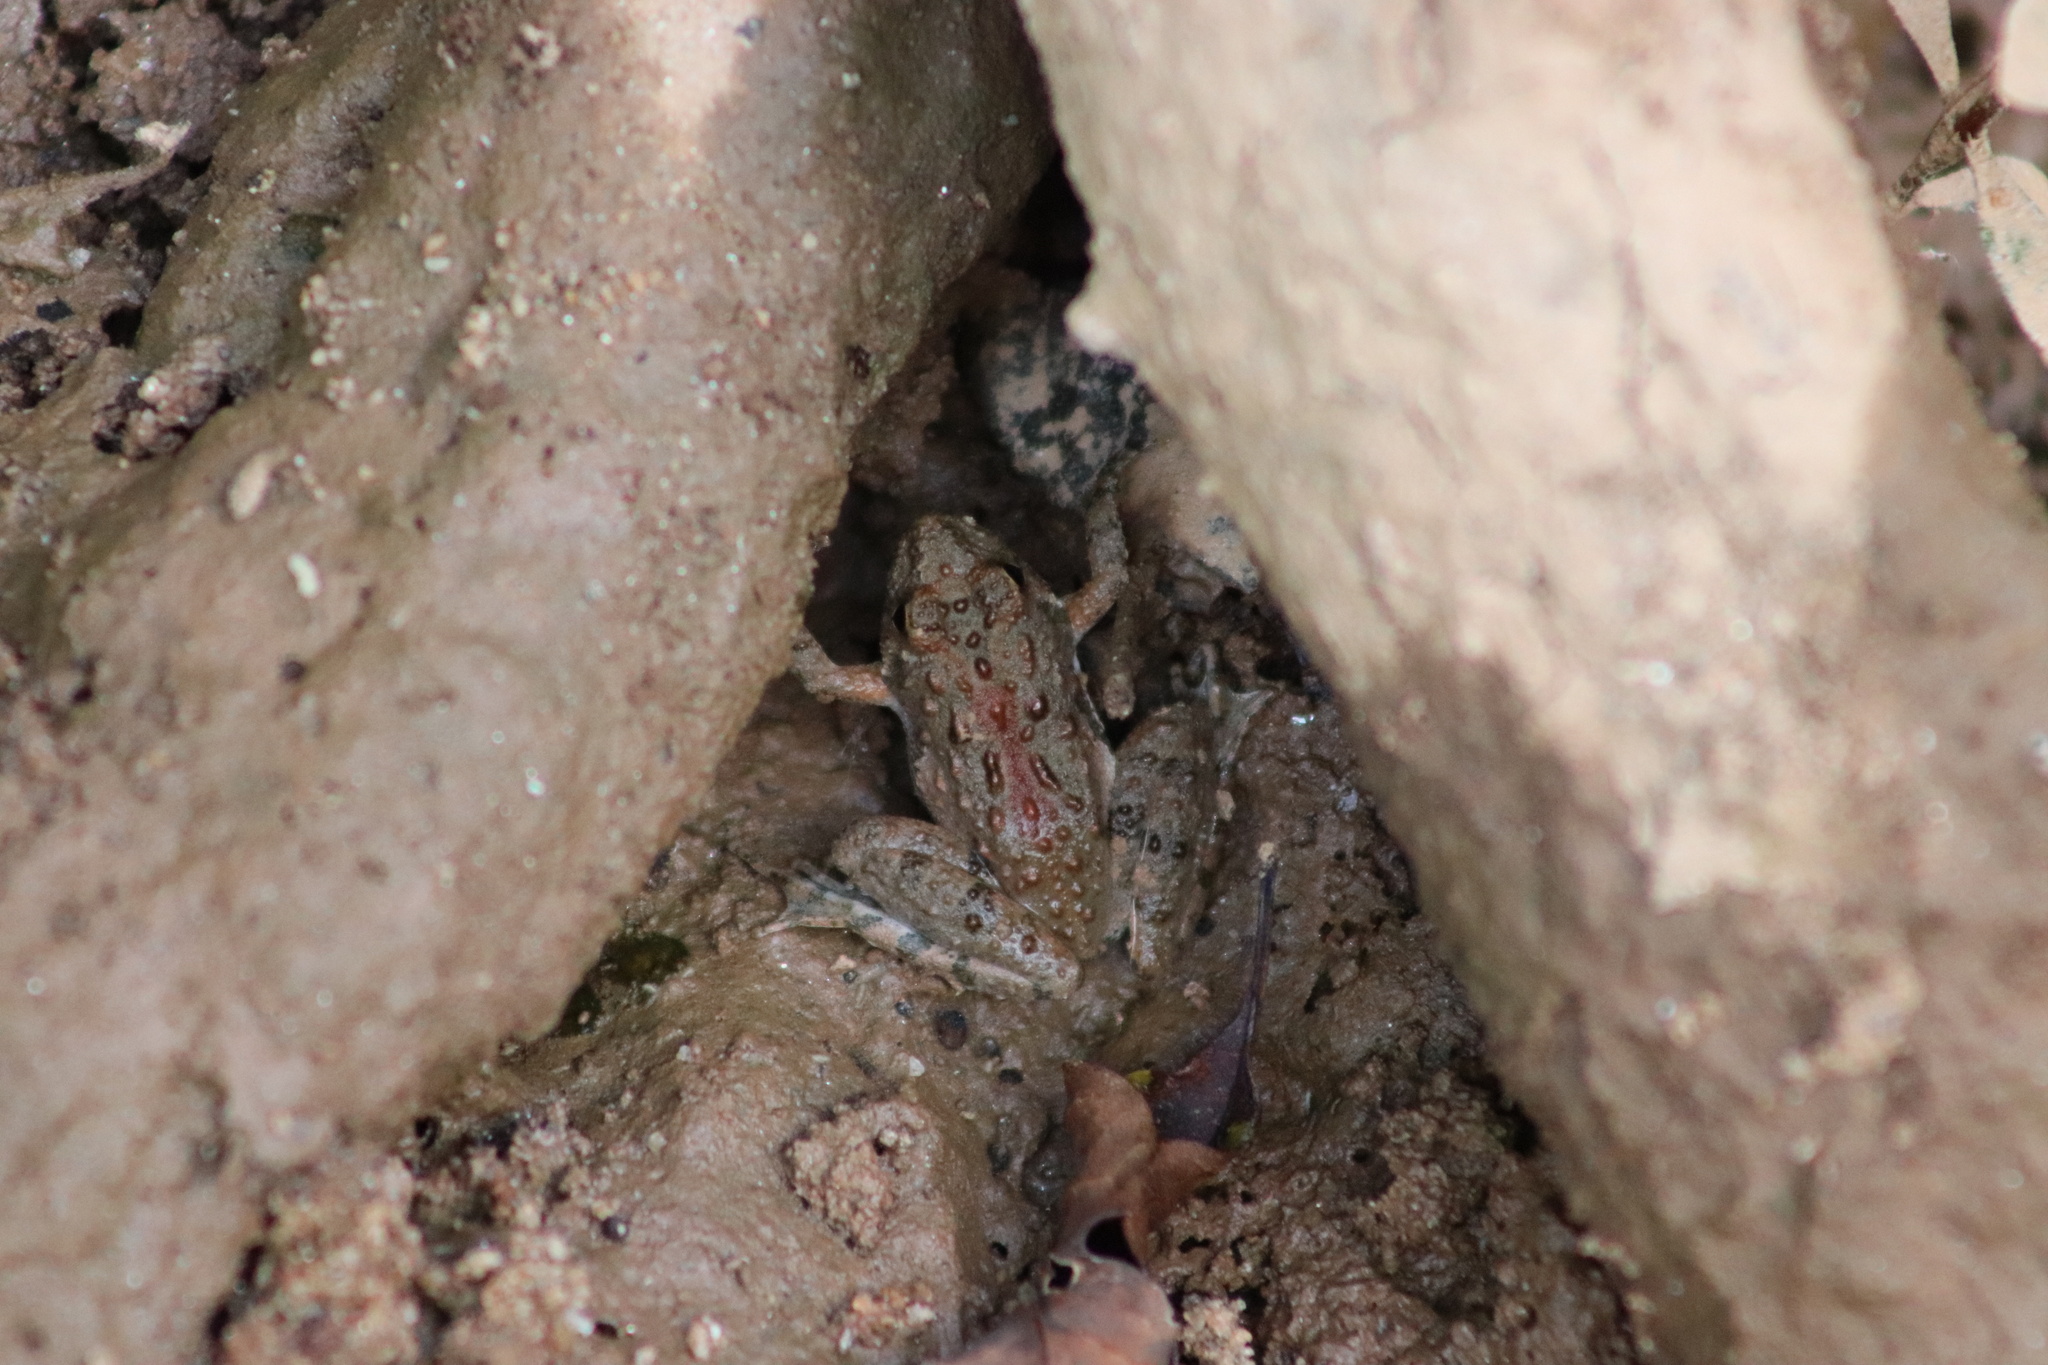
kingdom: Animalia
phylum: Chordata
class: Amphibia
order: Anura
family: Hylidae
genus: Acris
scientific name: Acris crepitans
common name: Northern cricket frog
